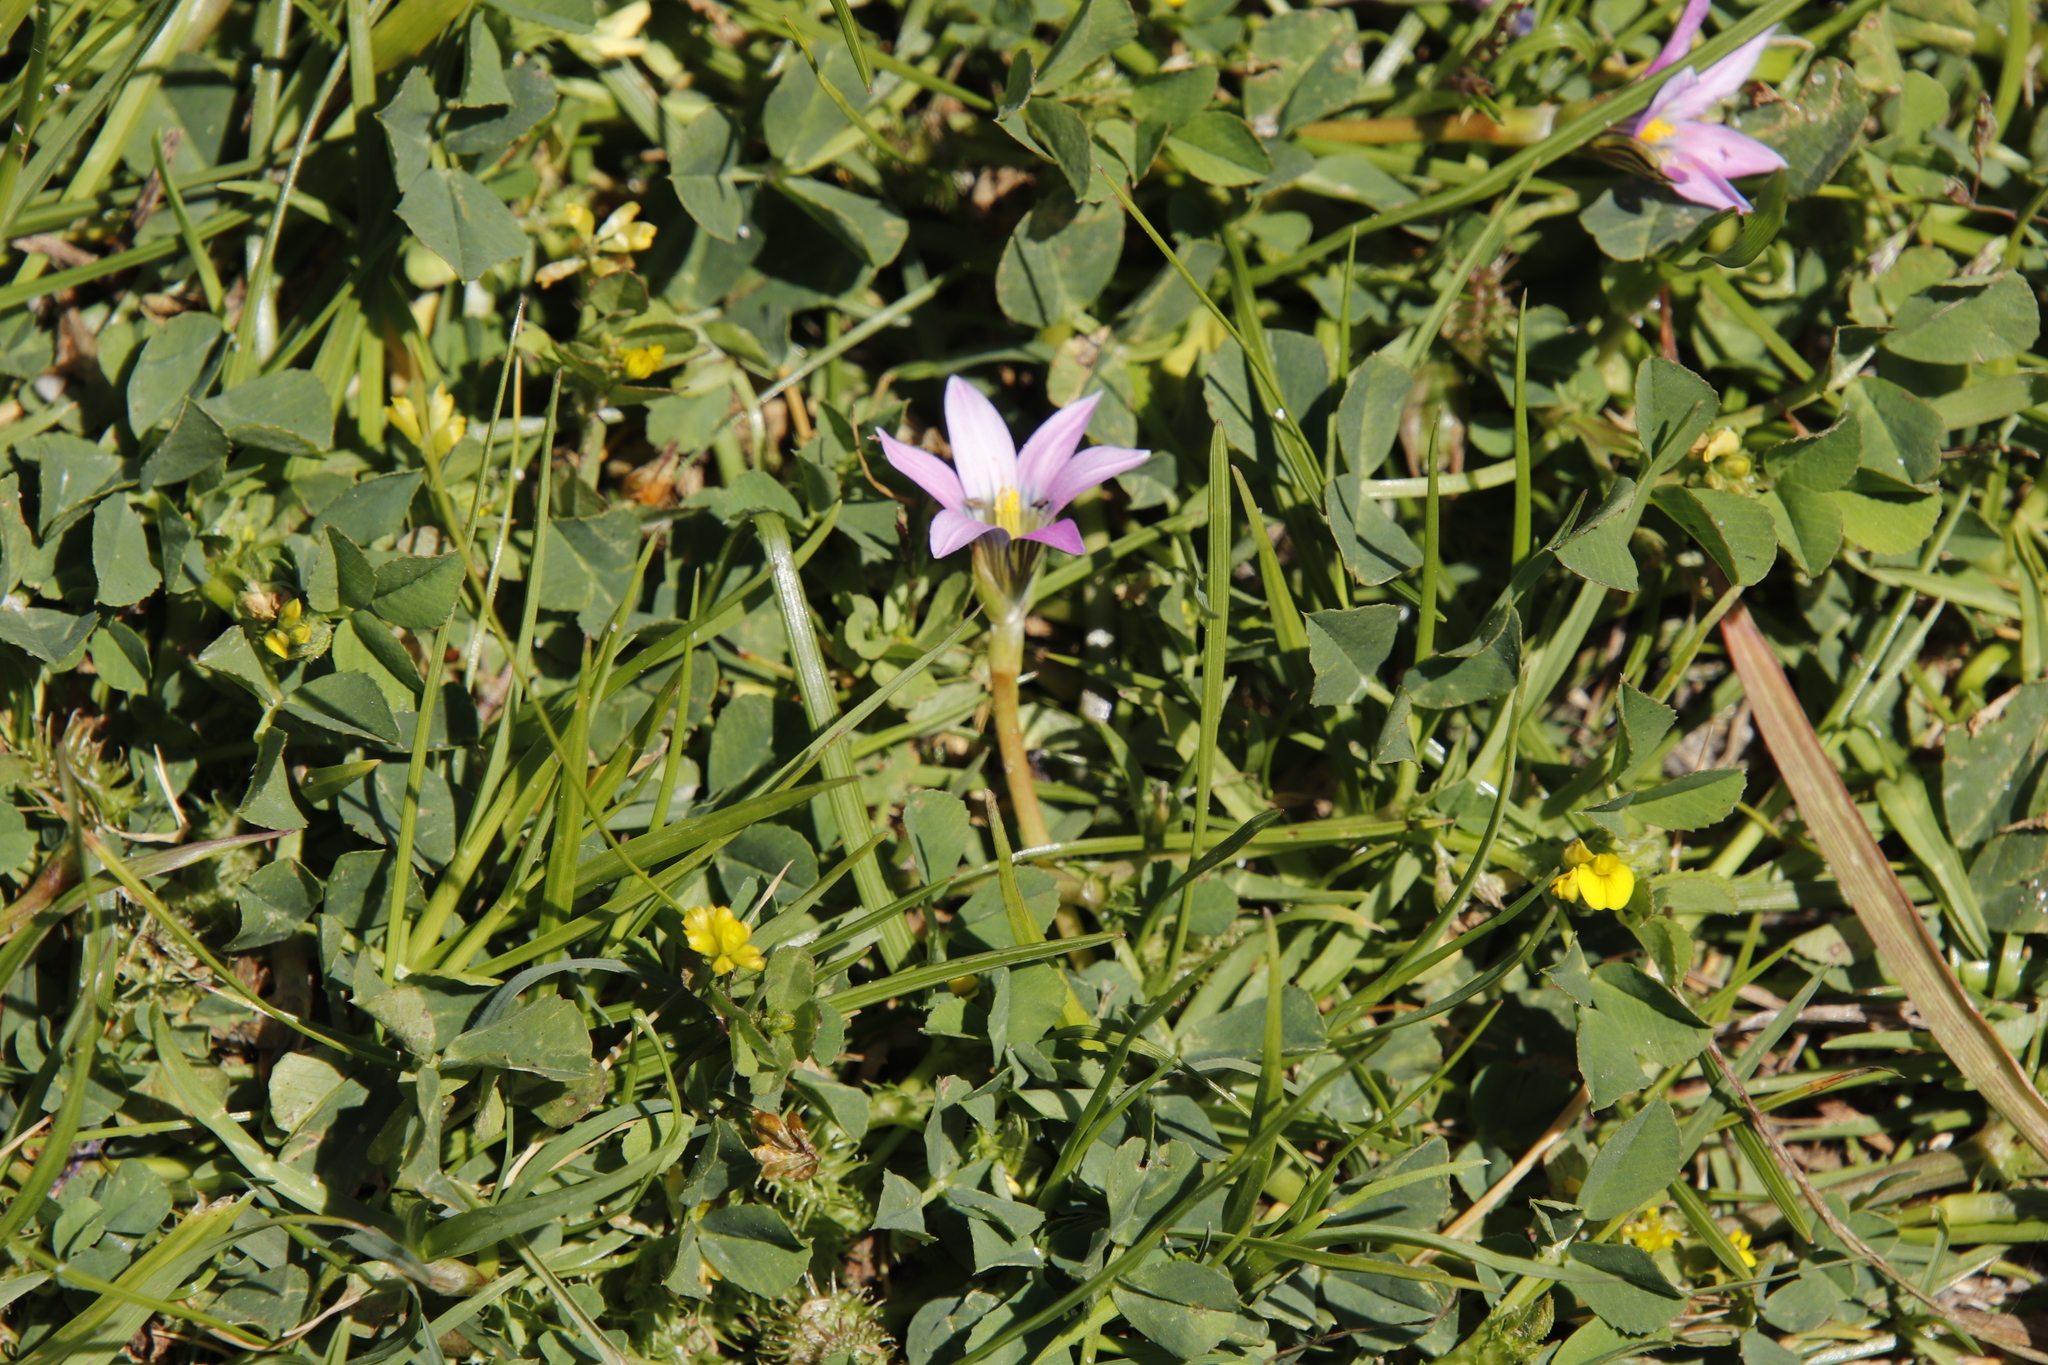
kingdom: Plantae
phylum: Tracheophyta
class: Liliopsida
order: Asparagales
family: Iridaceae
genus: Romulea
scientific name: Romulea rosea
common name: Oniongrass
